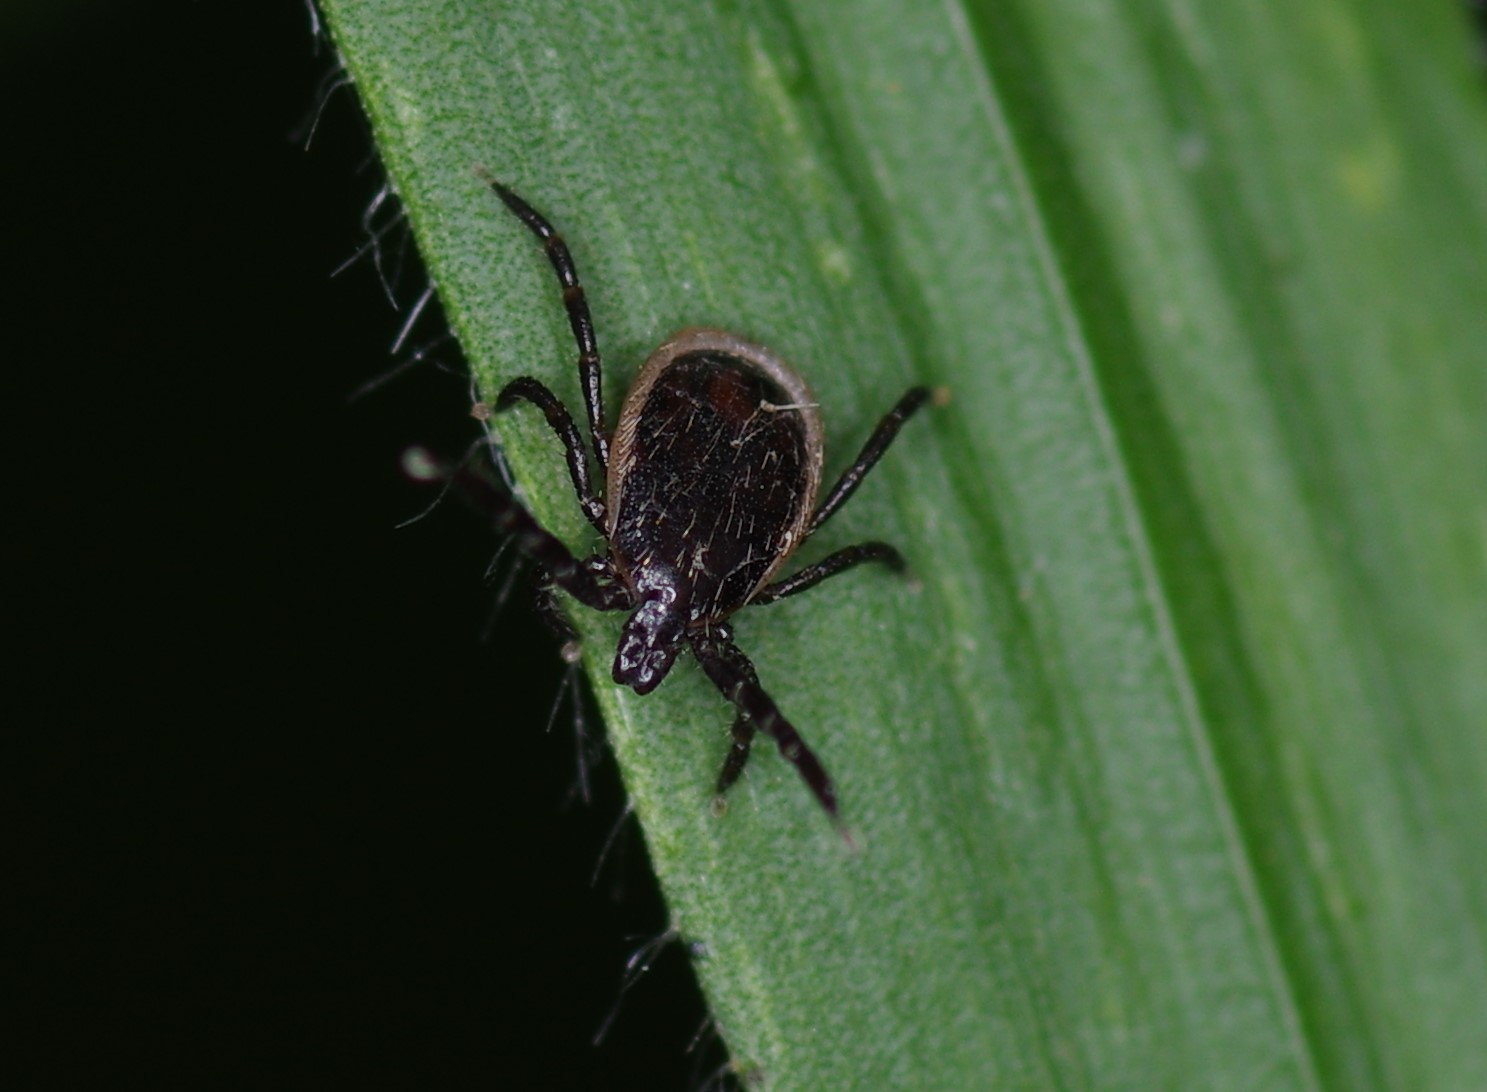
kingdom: Animalia
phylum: Arthropoda
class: Arachnida
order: Ixodida
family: Ixodidae
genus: Ixodes
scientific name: Ixodes ricinus
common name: Castor bean tick
